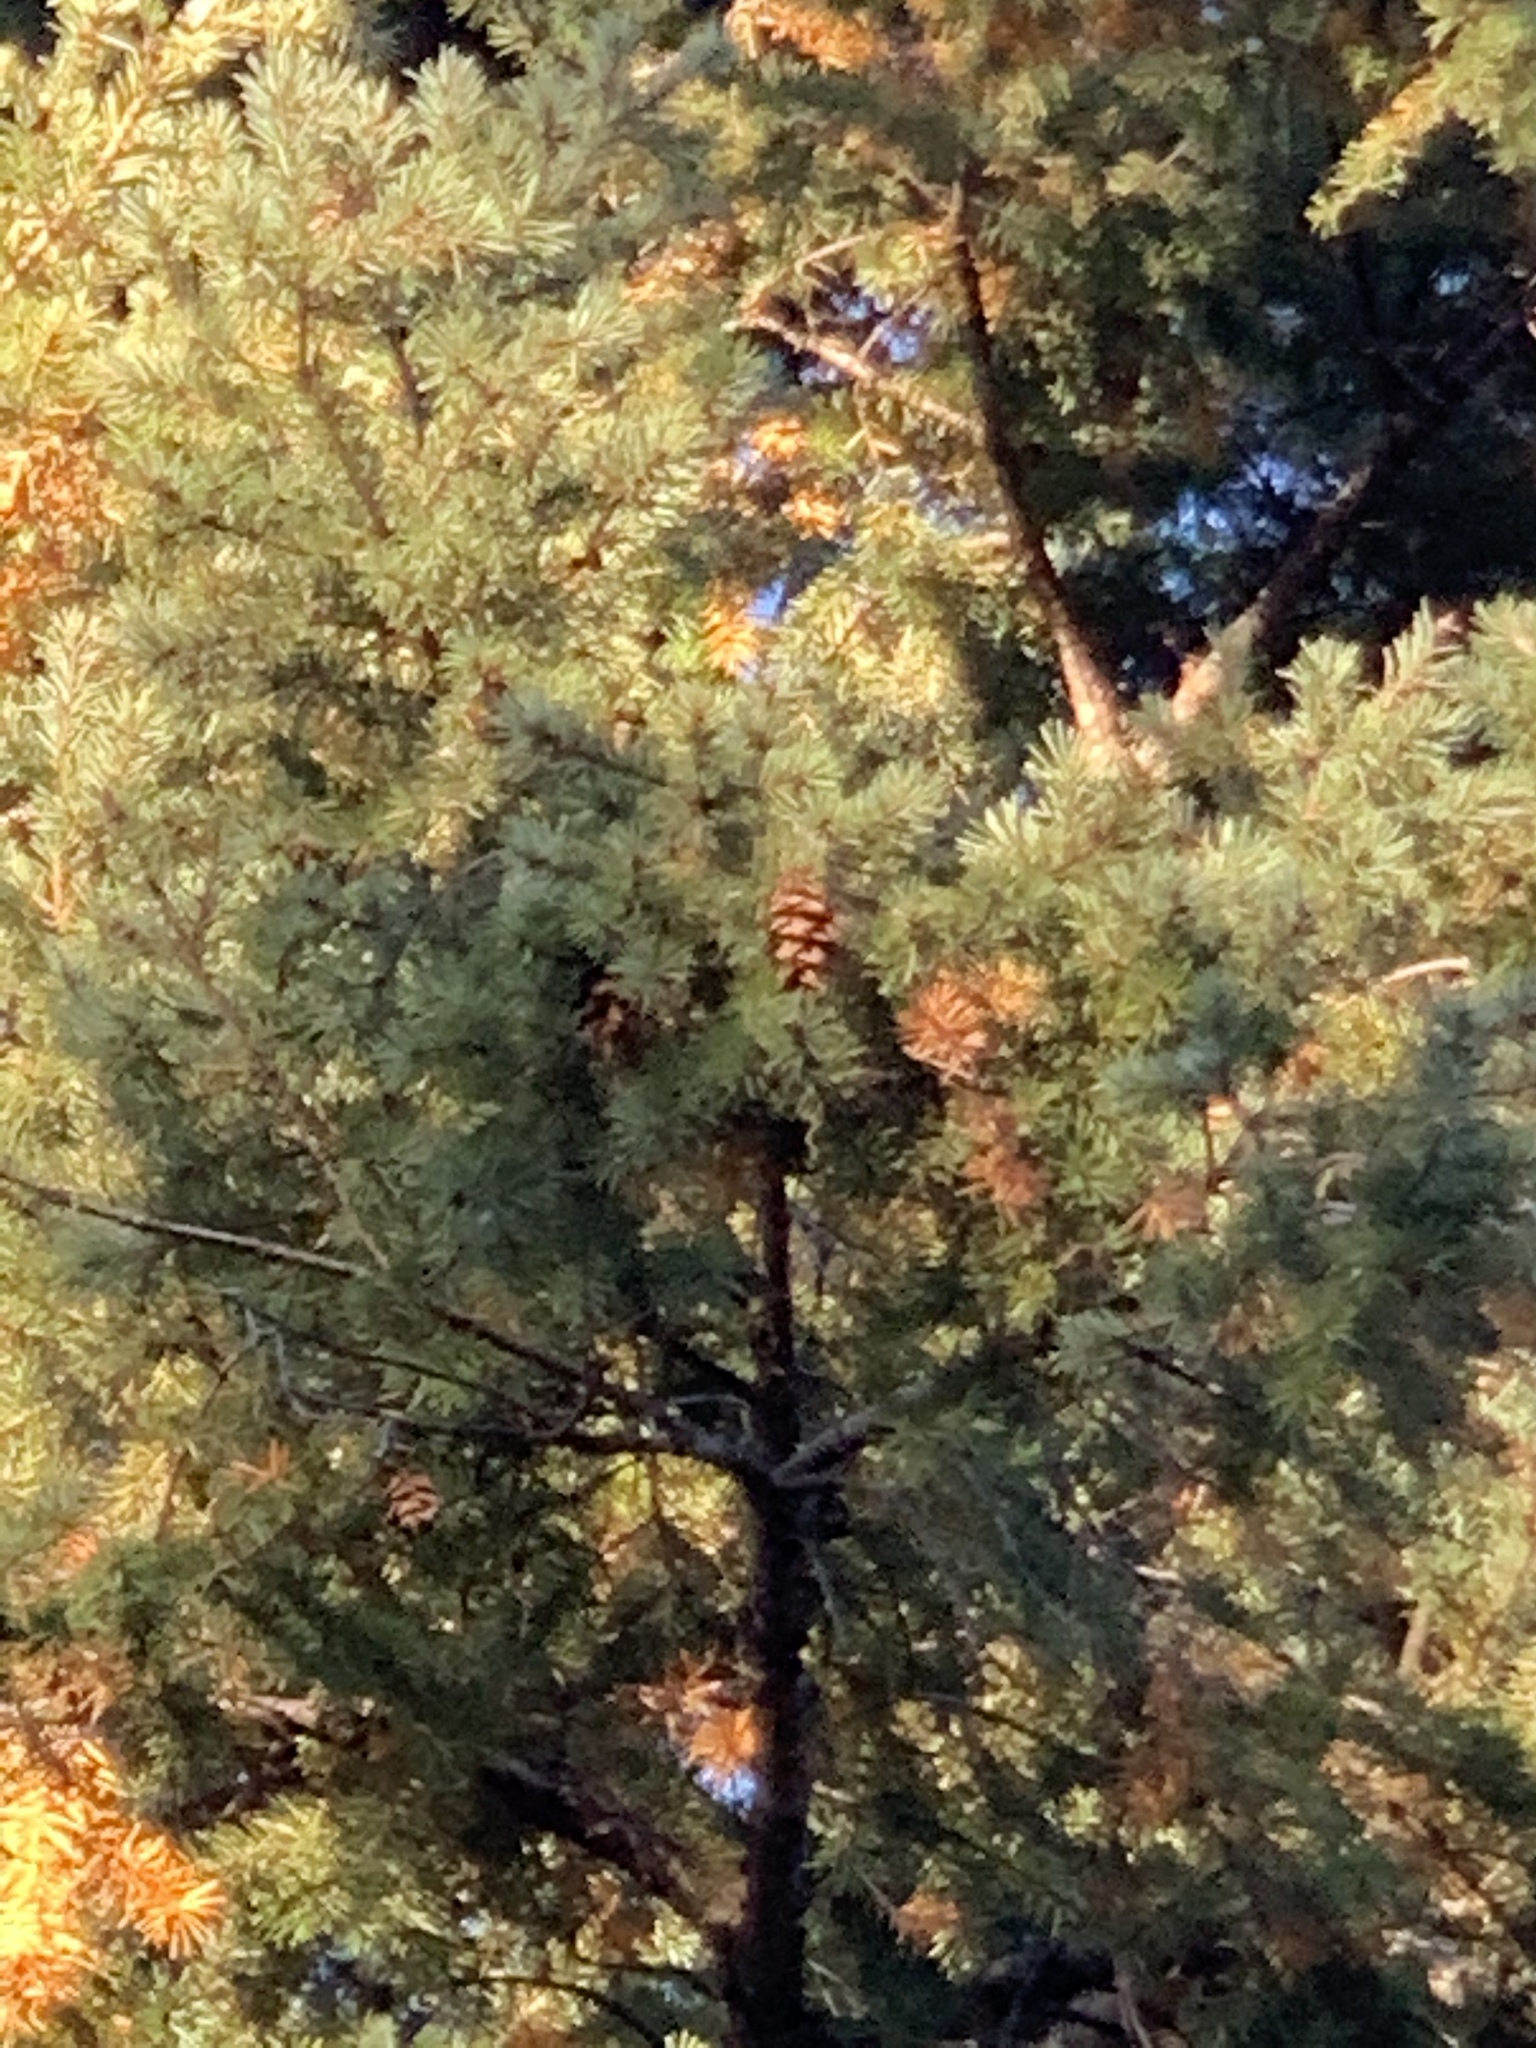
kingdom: Plantae
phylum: Tracheophyta
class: Pinopsida
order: Pinales
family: Pinaceae
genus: Pseudotsuga
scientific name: Pseudotsuga menziesii
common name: Douglas fir
